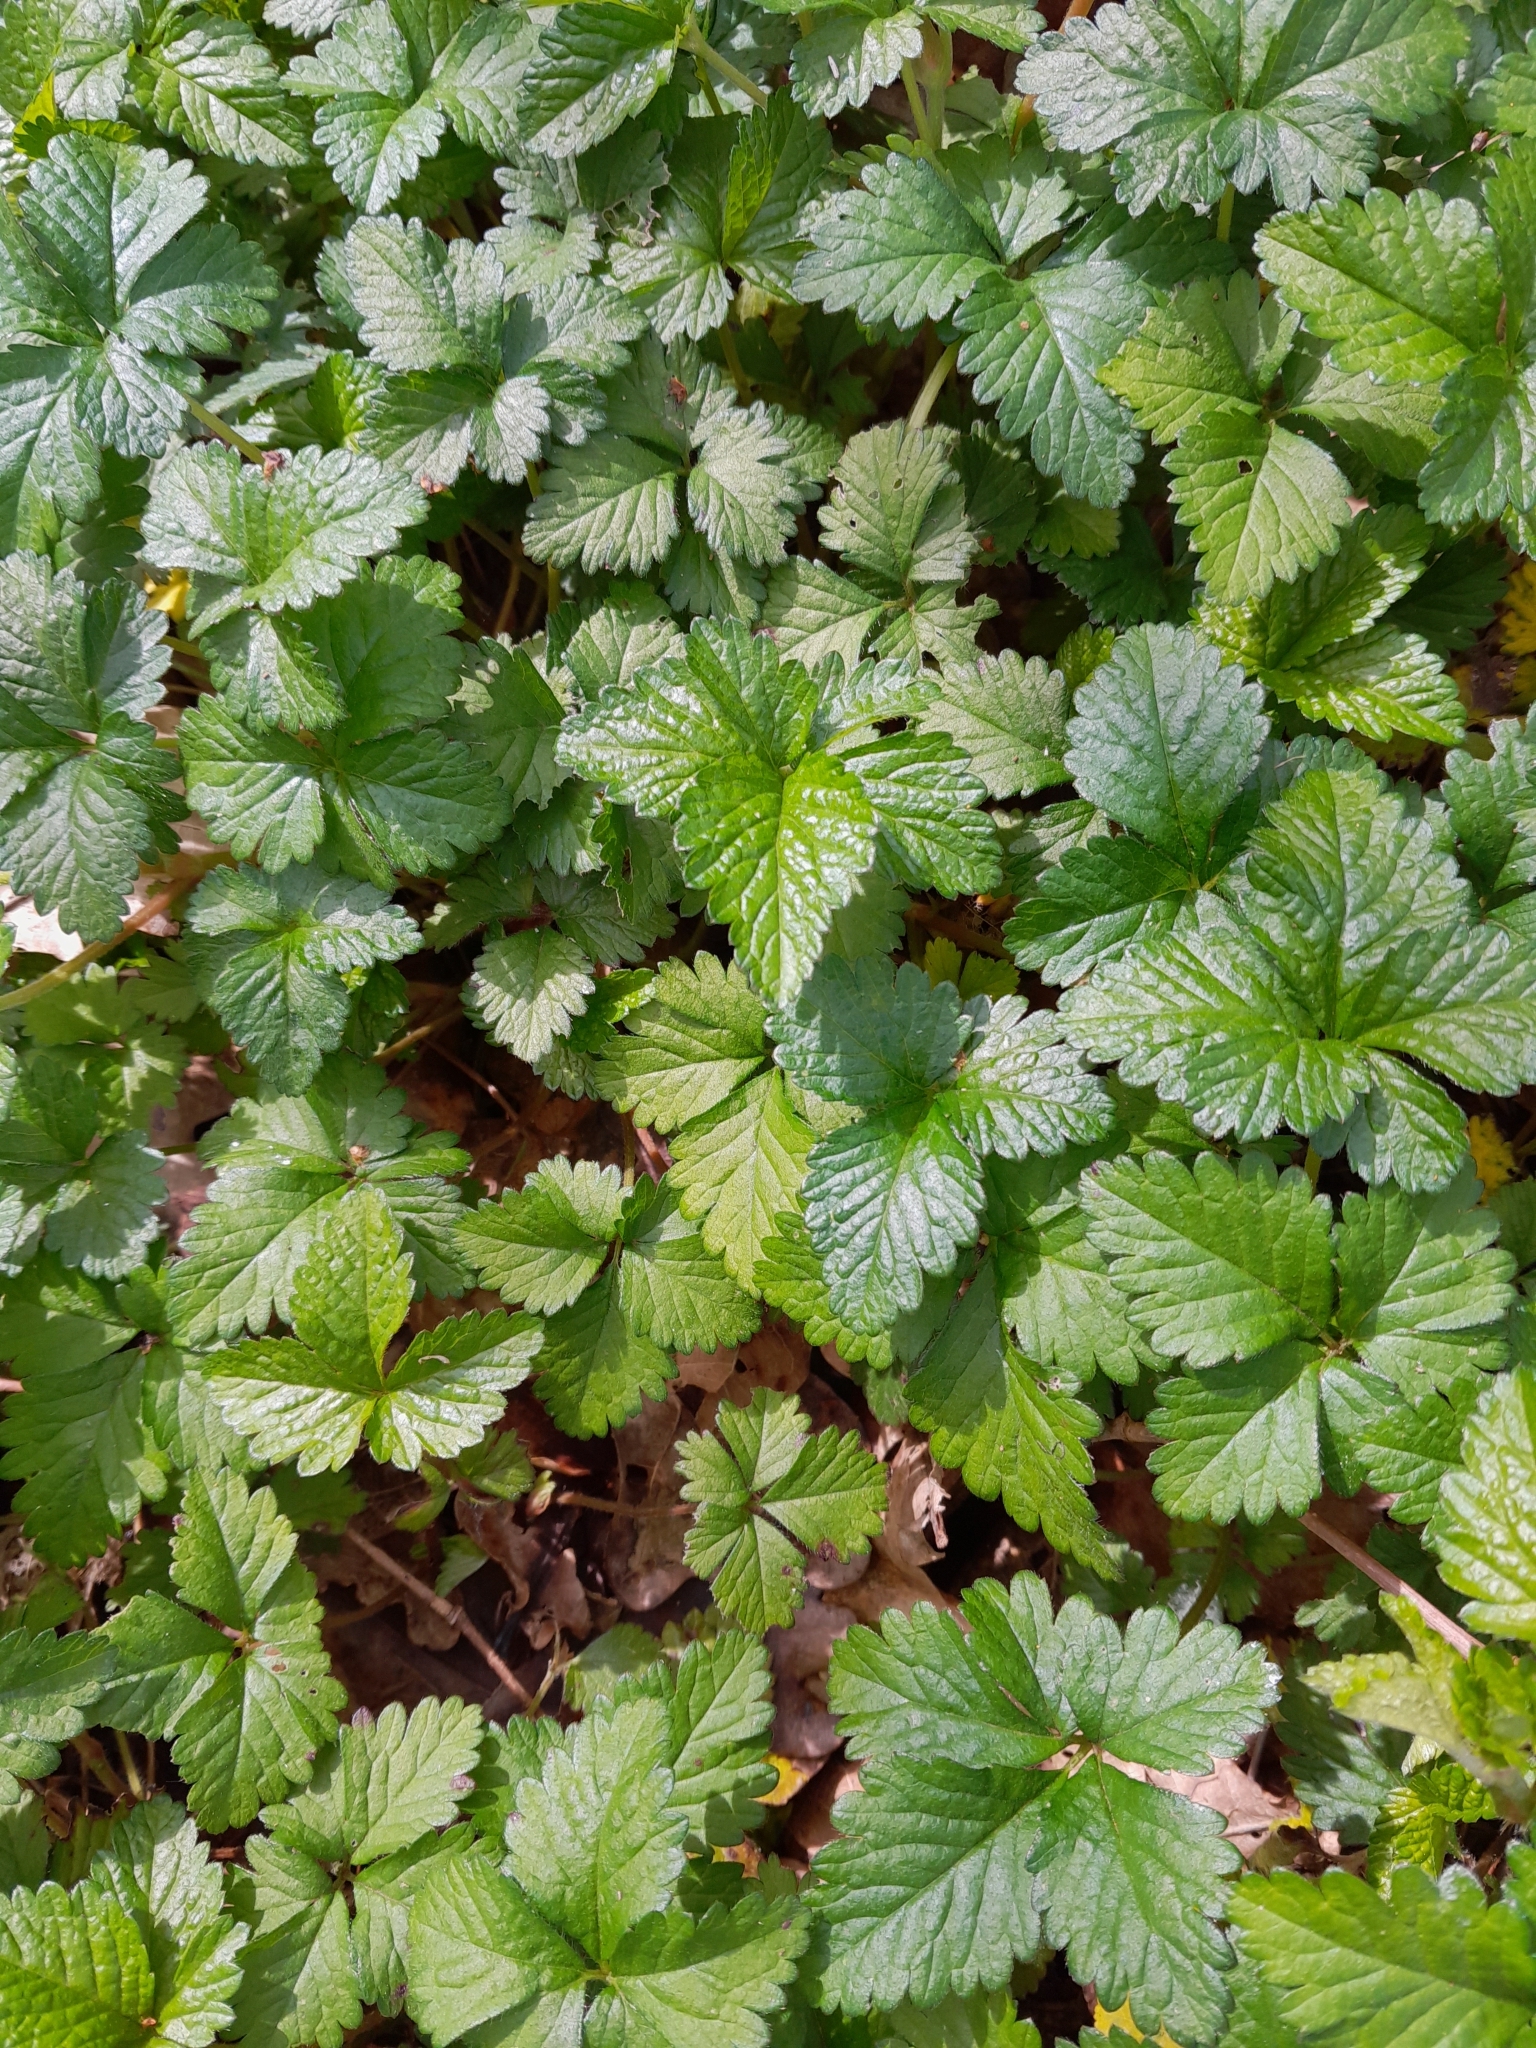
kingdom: Plantae
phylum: Tracheophyta
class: Magnoliopsida
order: Rosales
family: Rosaceae
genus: Potentilla
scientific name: Potentilla indica
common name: Yellow-flowered strawberry
